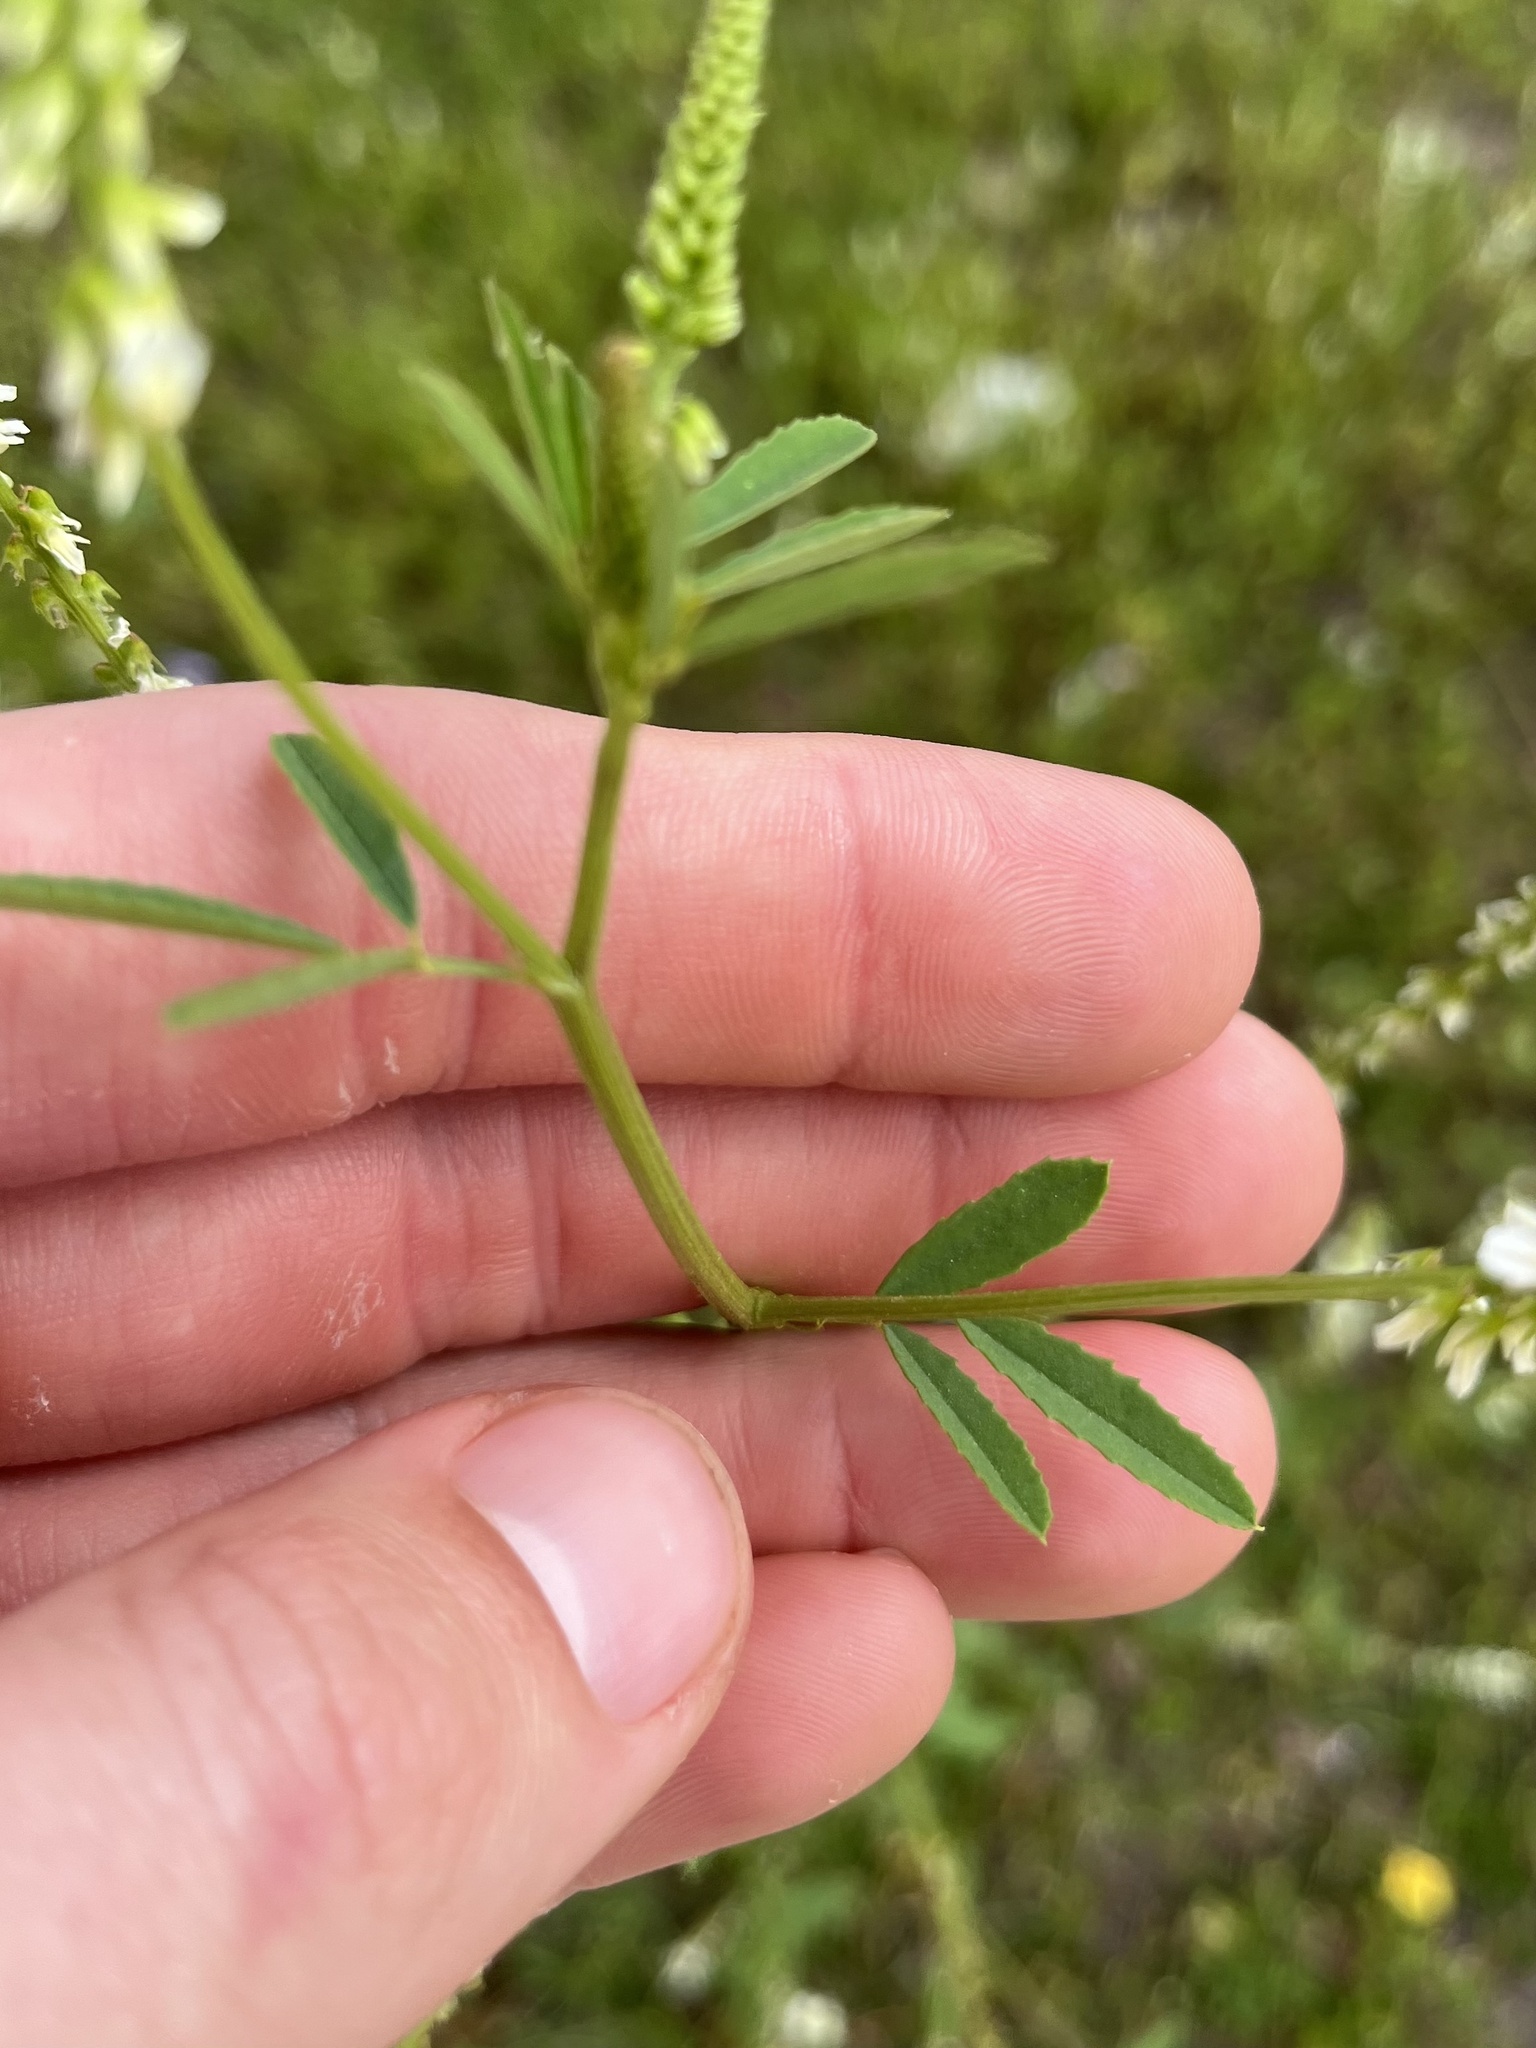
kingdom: Plantae
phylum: Tracheophyta
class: Magnoliopsida
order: Fabales
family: Fabaceae
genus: Melilotus
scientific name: Melilotus albus
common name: White melilot
